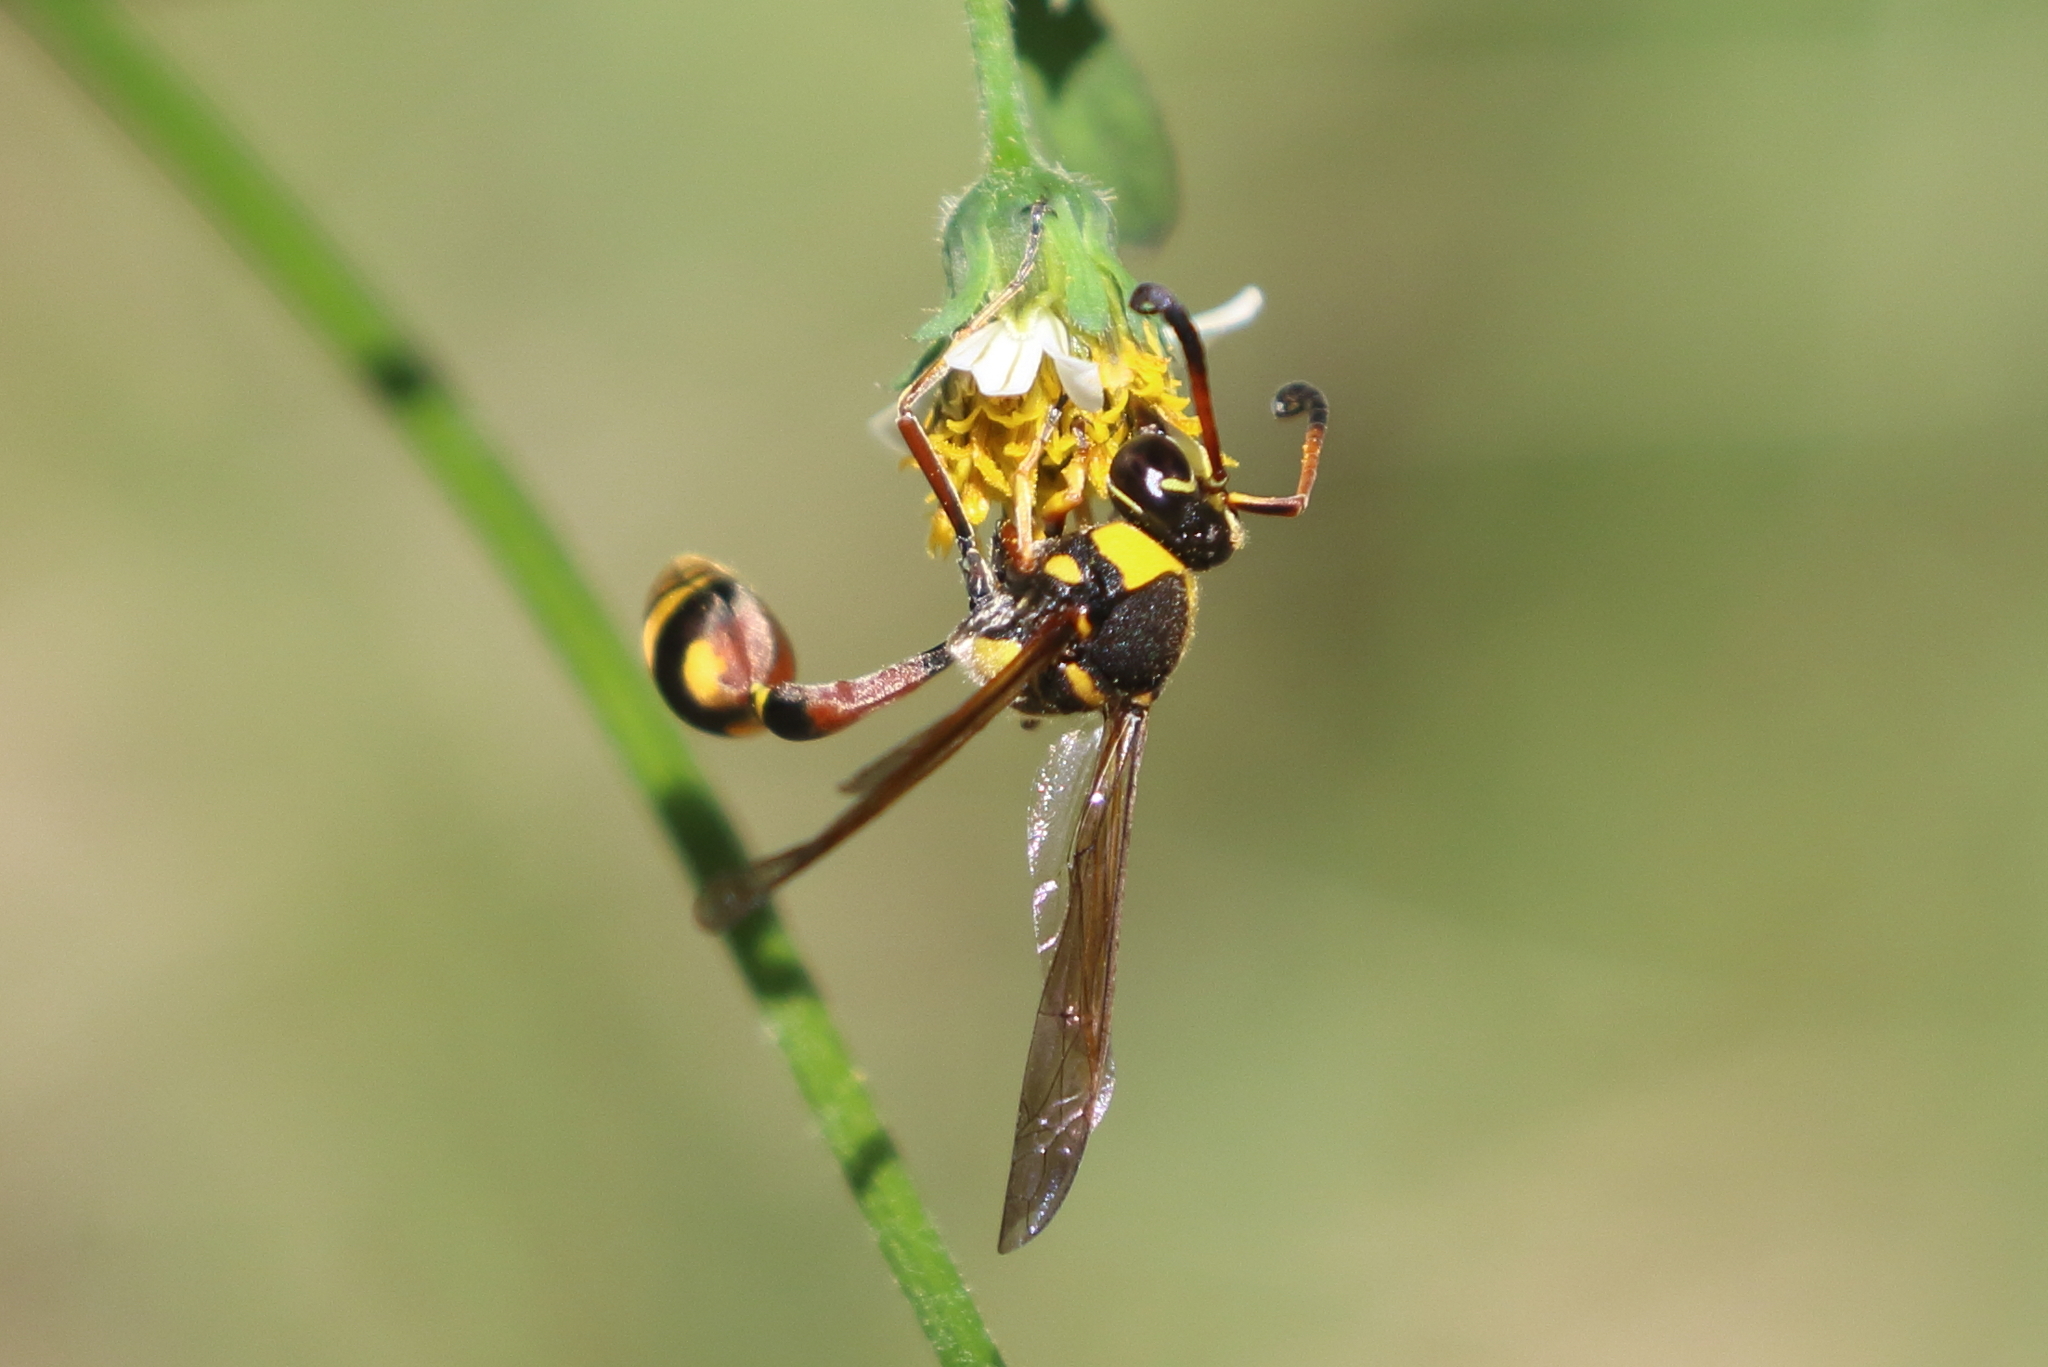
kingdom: Animalia
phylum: Arthropoda
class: Insecta
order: Hymenoptera
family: Eumenidae
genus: Delta
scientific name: Delta campaniforme
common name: Yellow and black potter wasp
